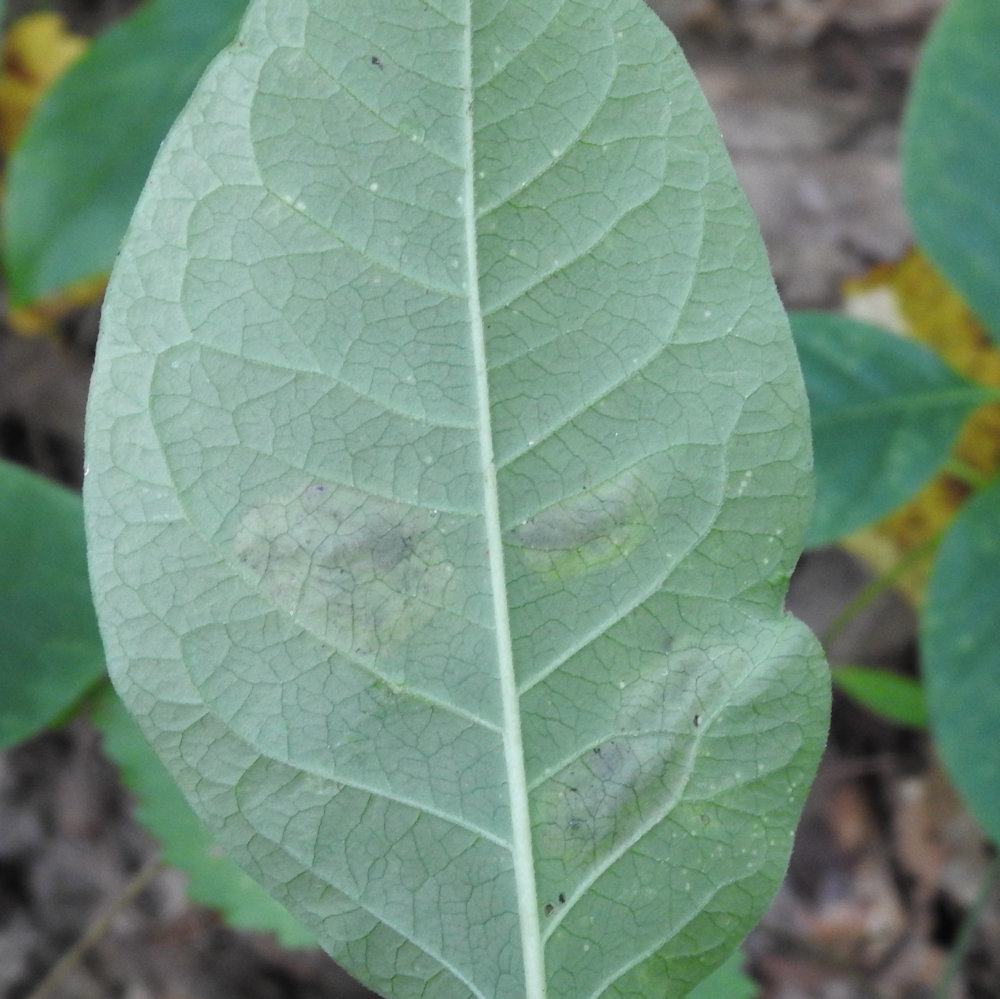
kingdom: Animalia
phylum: Arthropoda
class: Insecta
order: Diptera
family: Agromyzidae
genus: Liriomyza
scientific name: Liriomyza asclepiadis
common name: Milkweed leaf-miner fly
